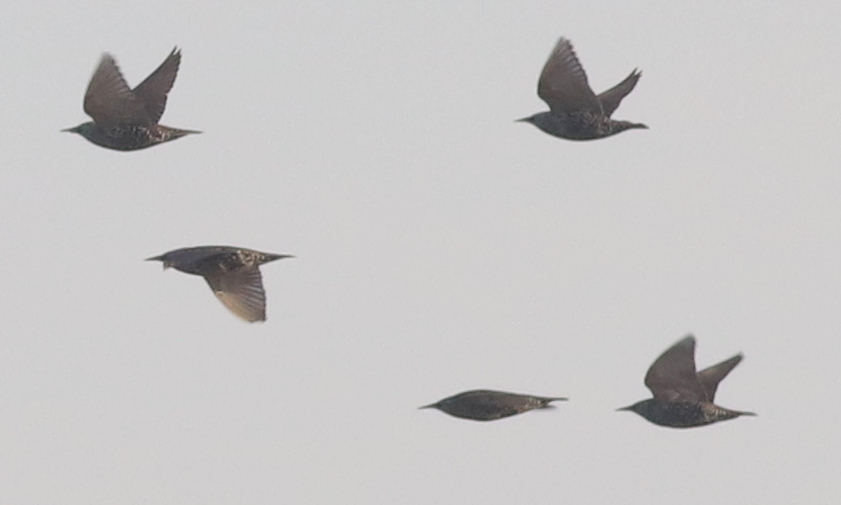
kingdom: Animalia
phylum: Chordata
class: Aves
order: Passeriformes
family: Sturnidae
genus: Sturnus
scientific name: Sturnus vulgaris
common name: Common starling
